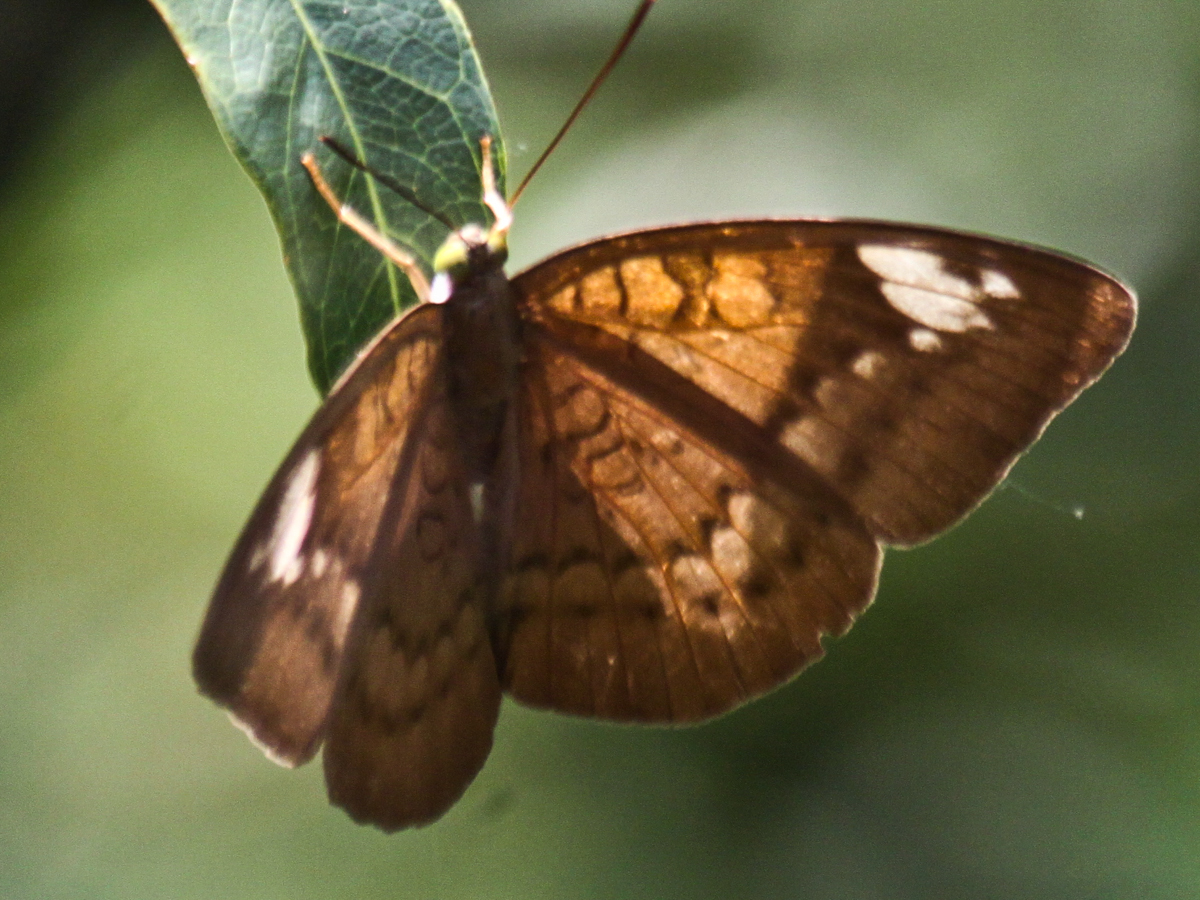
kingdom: Animalia
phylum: Arthropoda
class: Insecta
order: Lepidoptera
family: Nymphalidae
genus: Tanaecia
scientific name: Tanaecia julii
